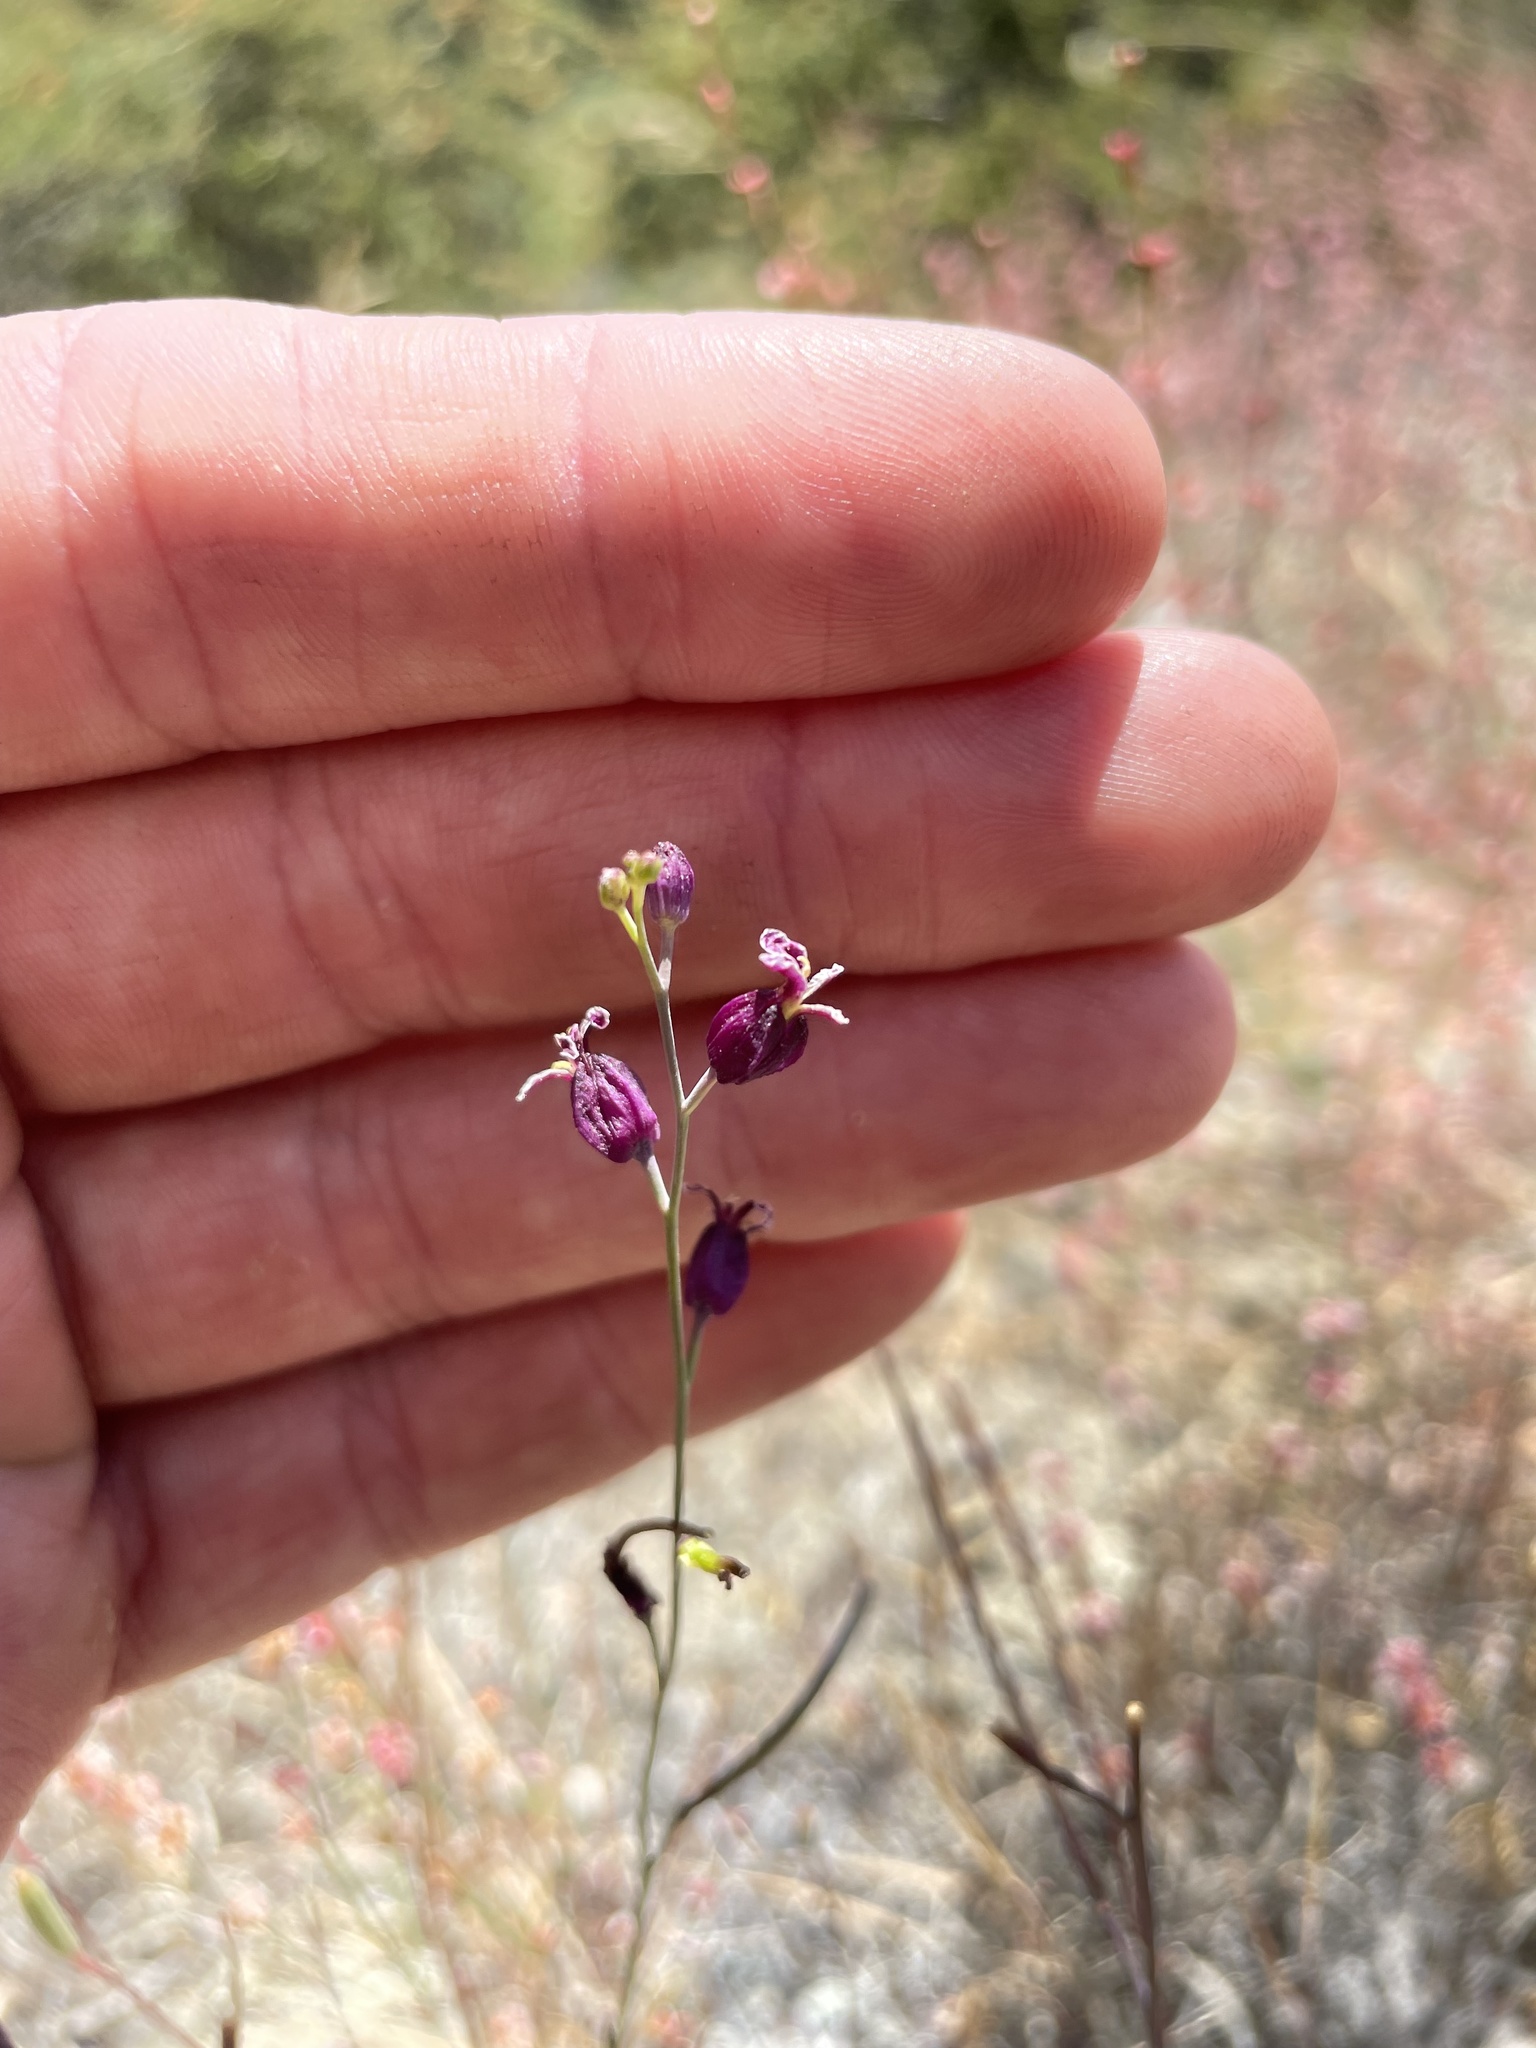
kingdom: Plantae
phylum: Tracheophyta
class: Magnoliopsida
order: Brassicales
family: Brassicaceae
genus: Streptanthus
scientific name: Streptanthus glandulosus
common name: Jewel-flower
